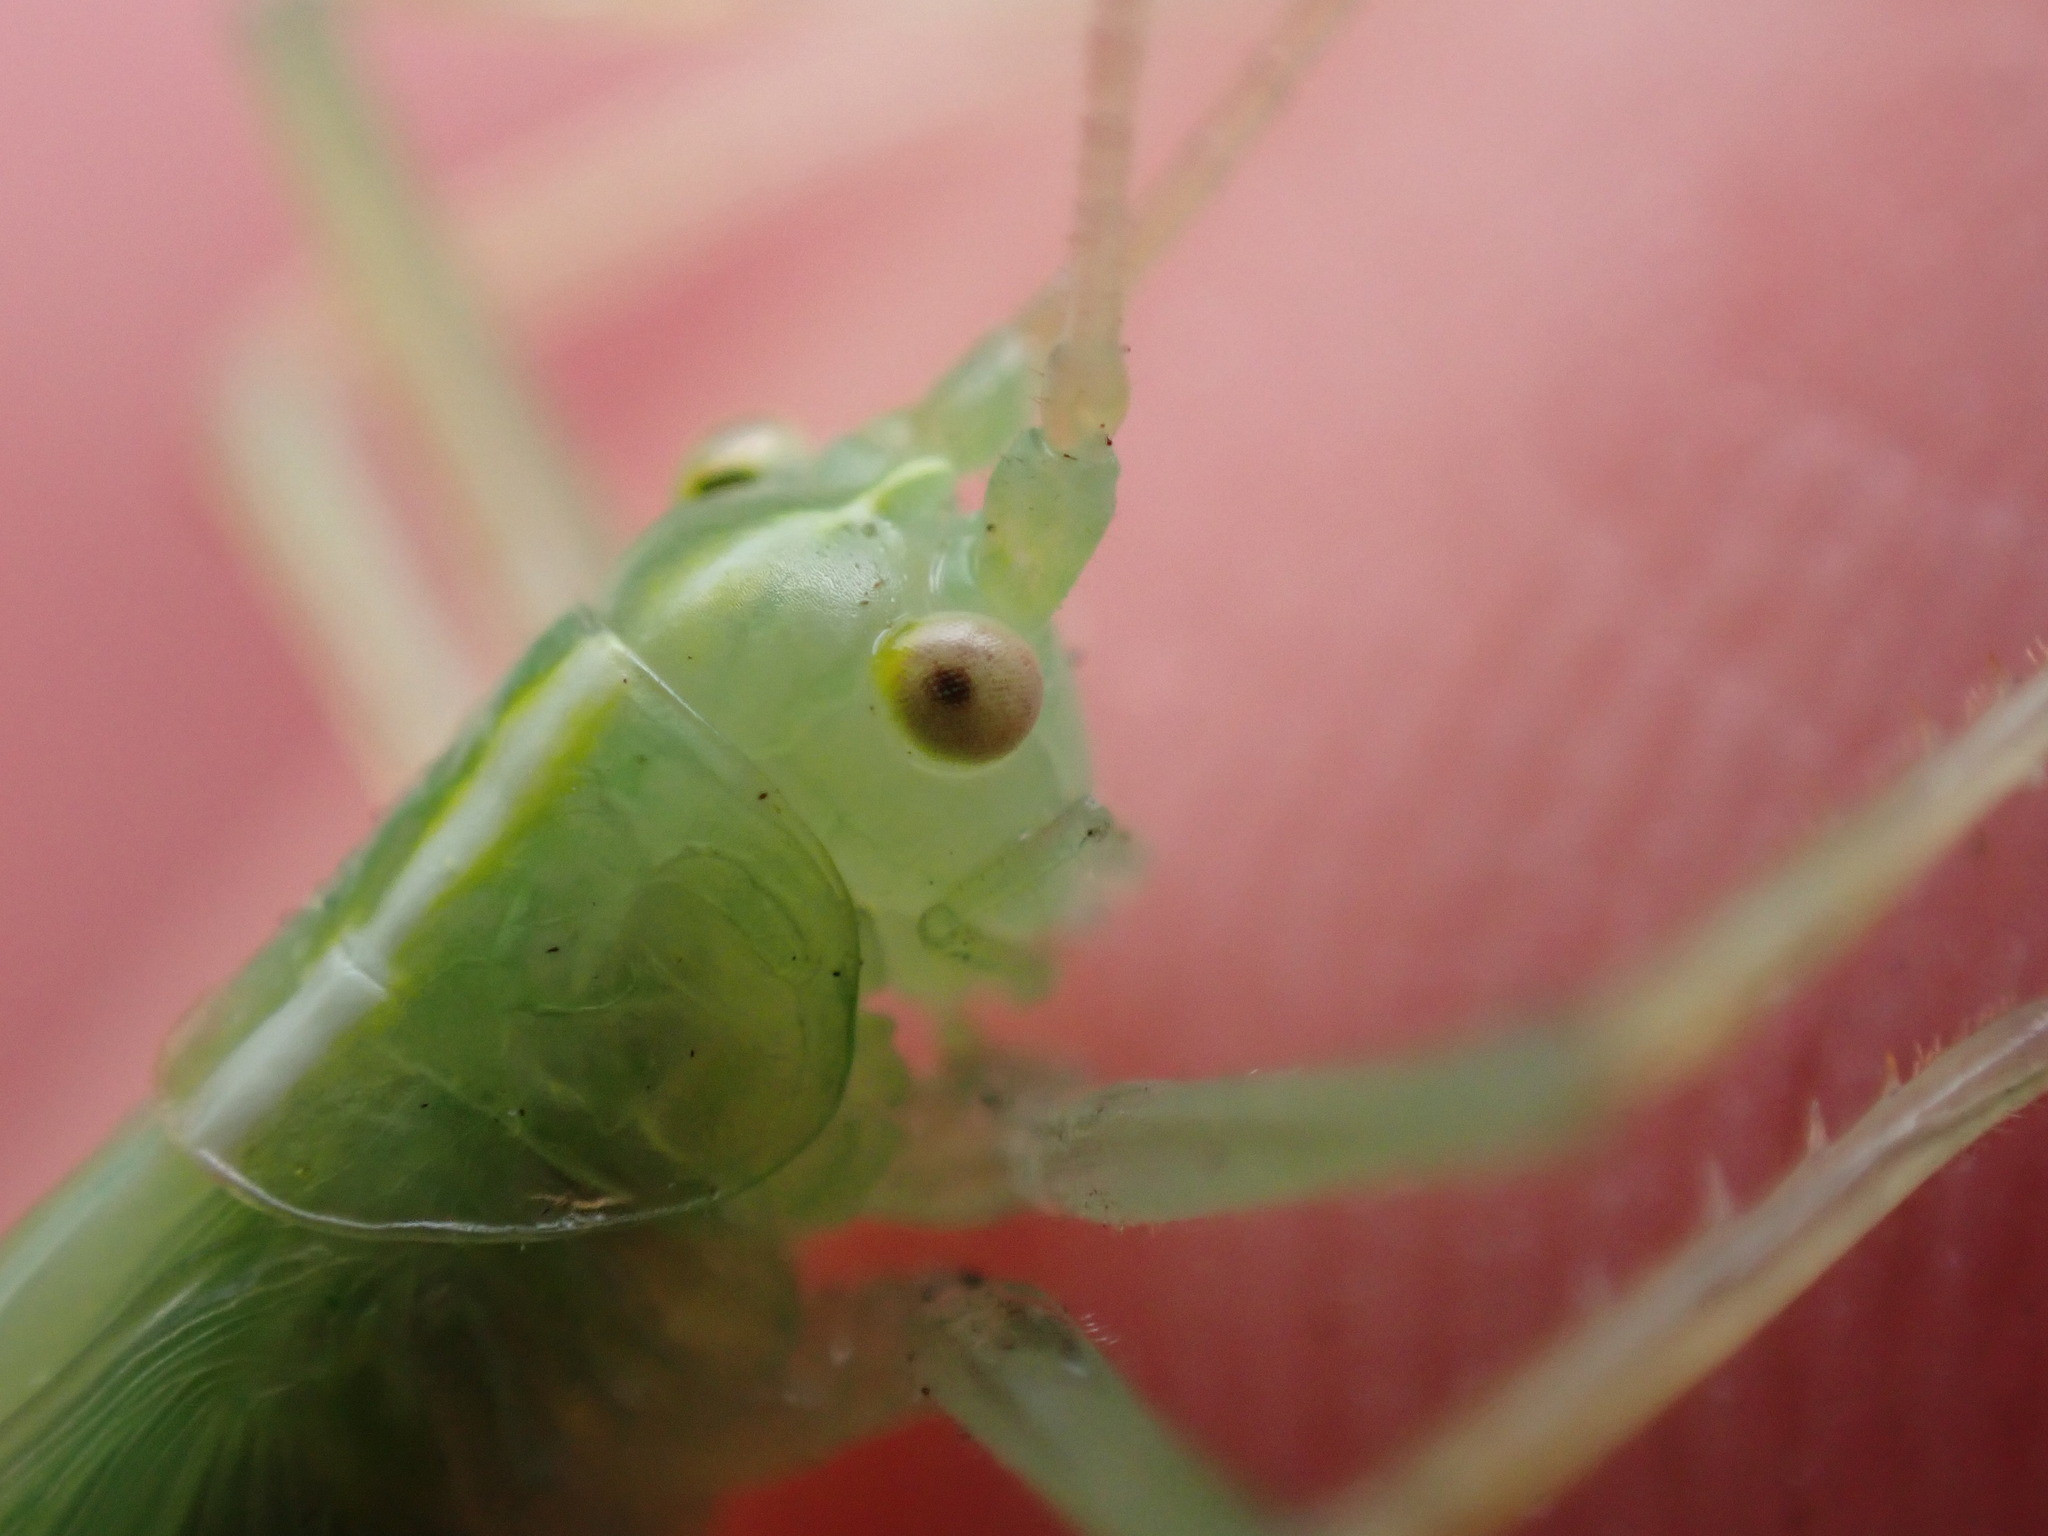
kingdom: Animalia
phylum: Arthropoda
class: Insecta
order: Orthoptera
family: Tettigoniidae
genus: Meconema
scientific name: Meconema thalassinum
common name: Oak bush-cricket
